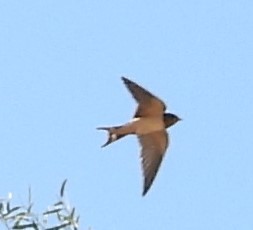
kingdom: Animalia
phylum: Chordata
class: Aves
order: Passeriformes
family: Hirundinidae
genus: Hirundo
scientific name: Hirundo rustica
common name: Barn swallow
